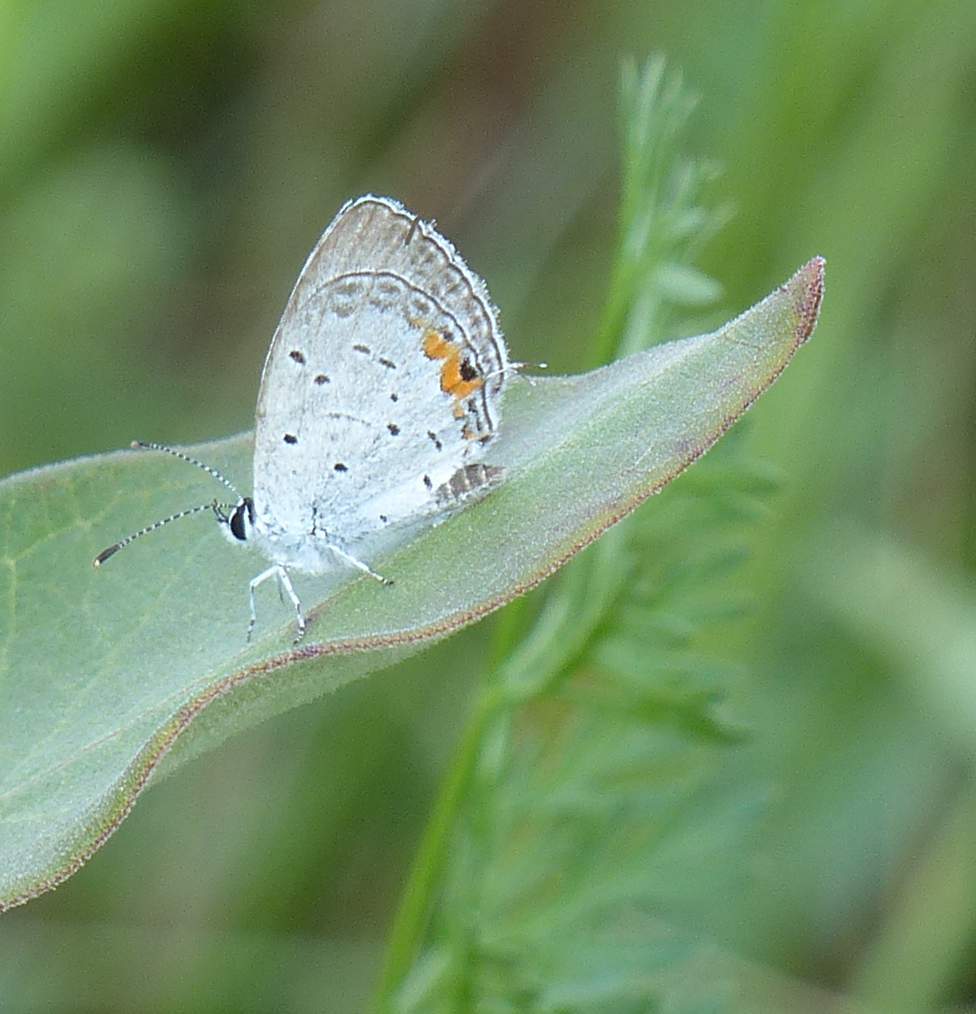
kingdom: Animalia
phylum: Arthropoda
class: Insecta
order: Lepidoptera
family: Lycaenidae
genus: Elkalyce
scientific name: Elkalyce comyntas
